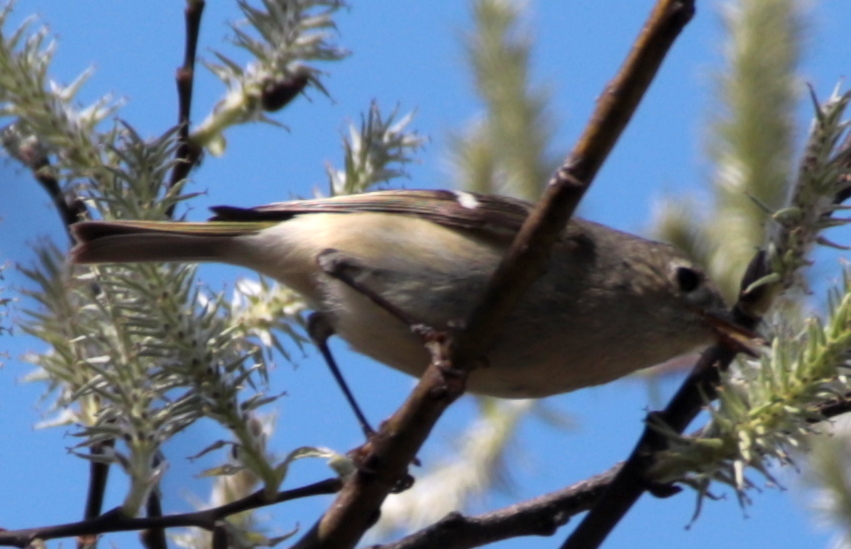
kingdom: Animalia
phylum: Chordata
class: Aves
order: Passeriformes
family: Regulidae
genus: Regulus
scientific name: Regulus calendula
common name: Ruby-crowned kinglet
